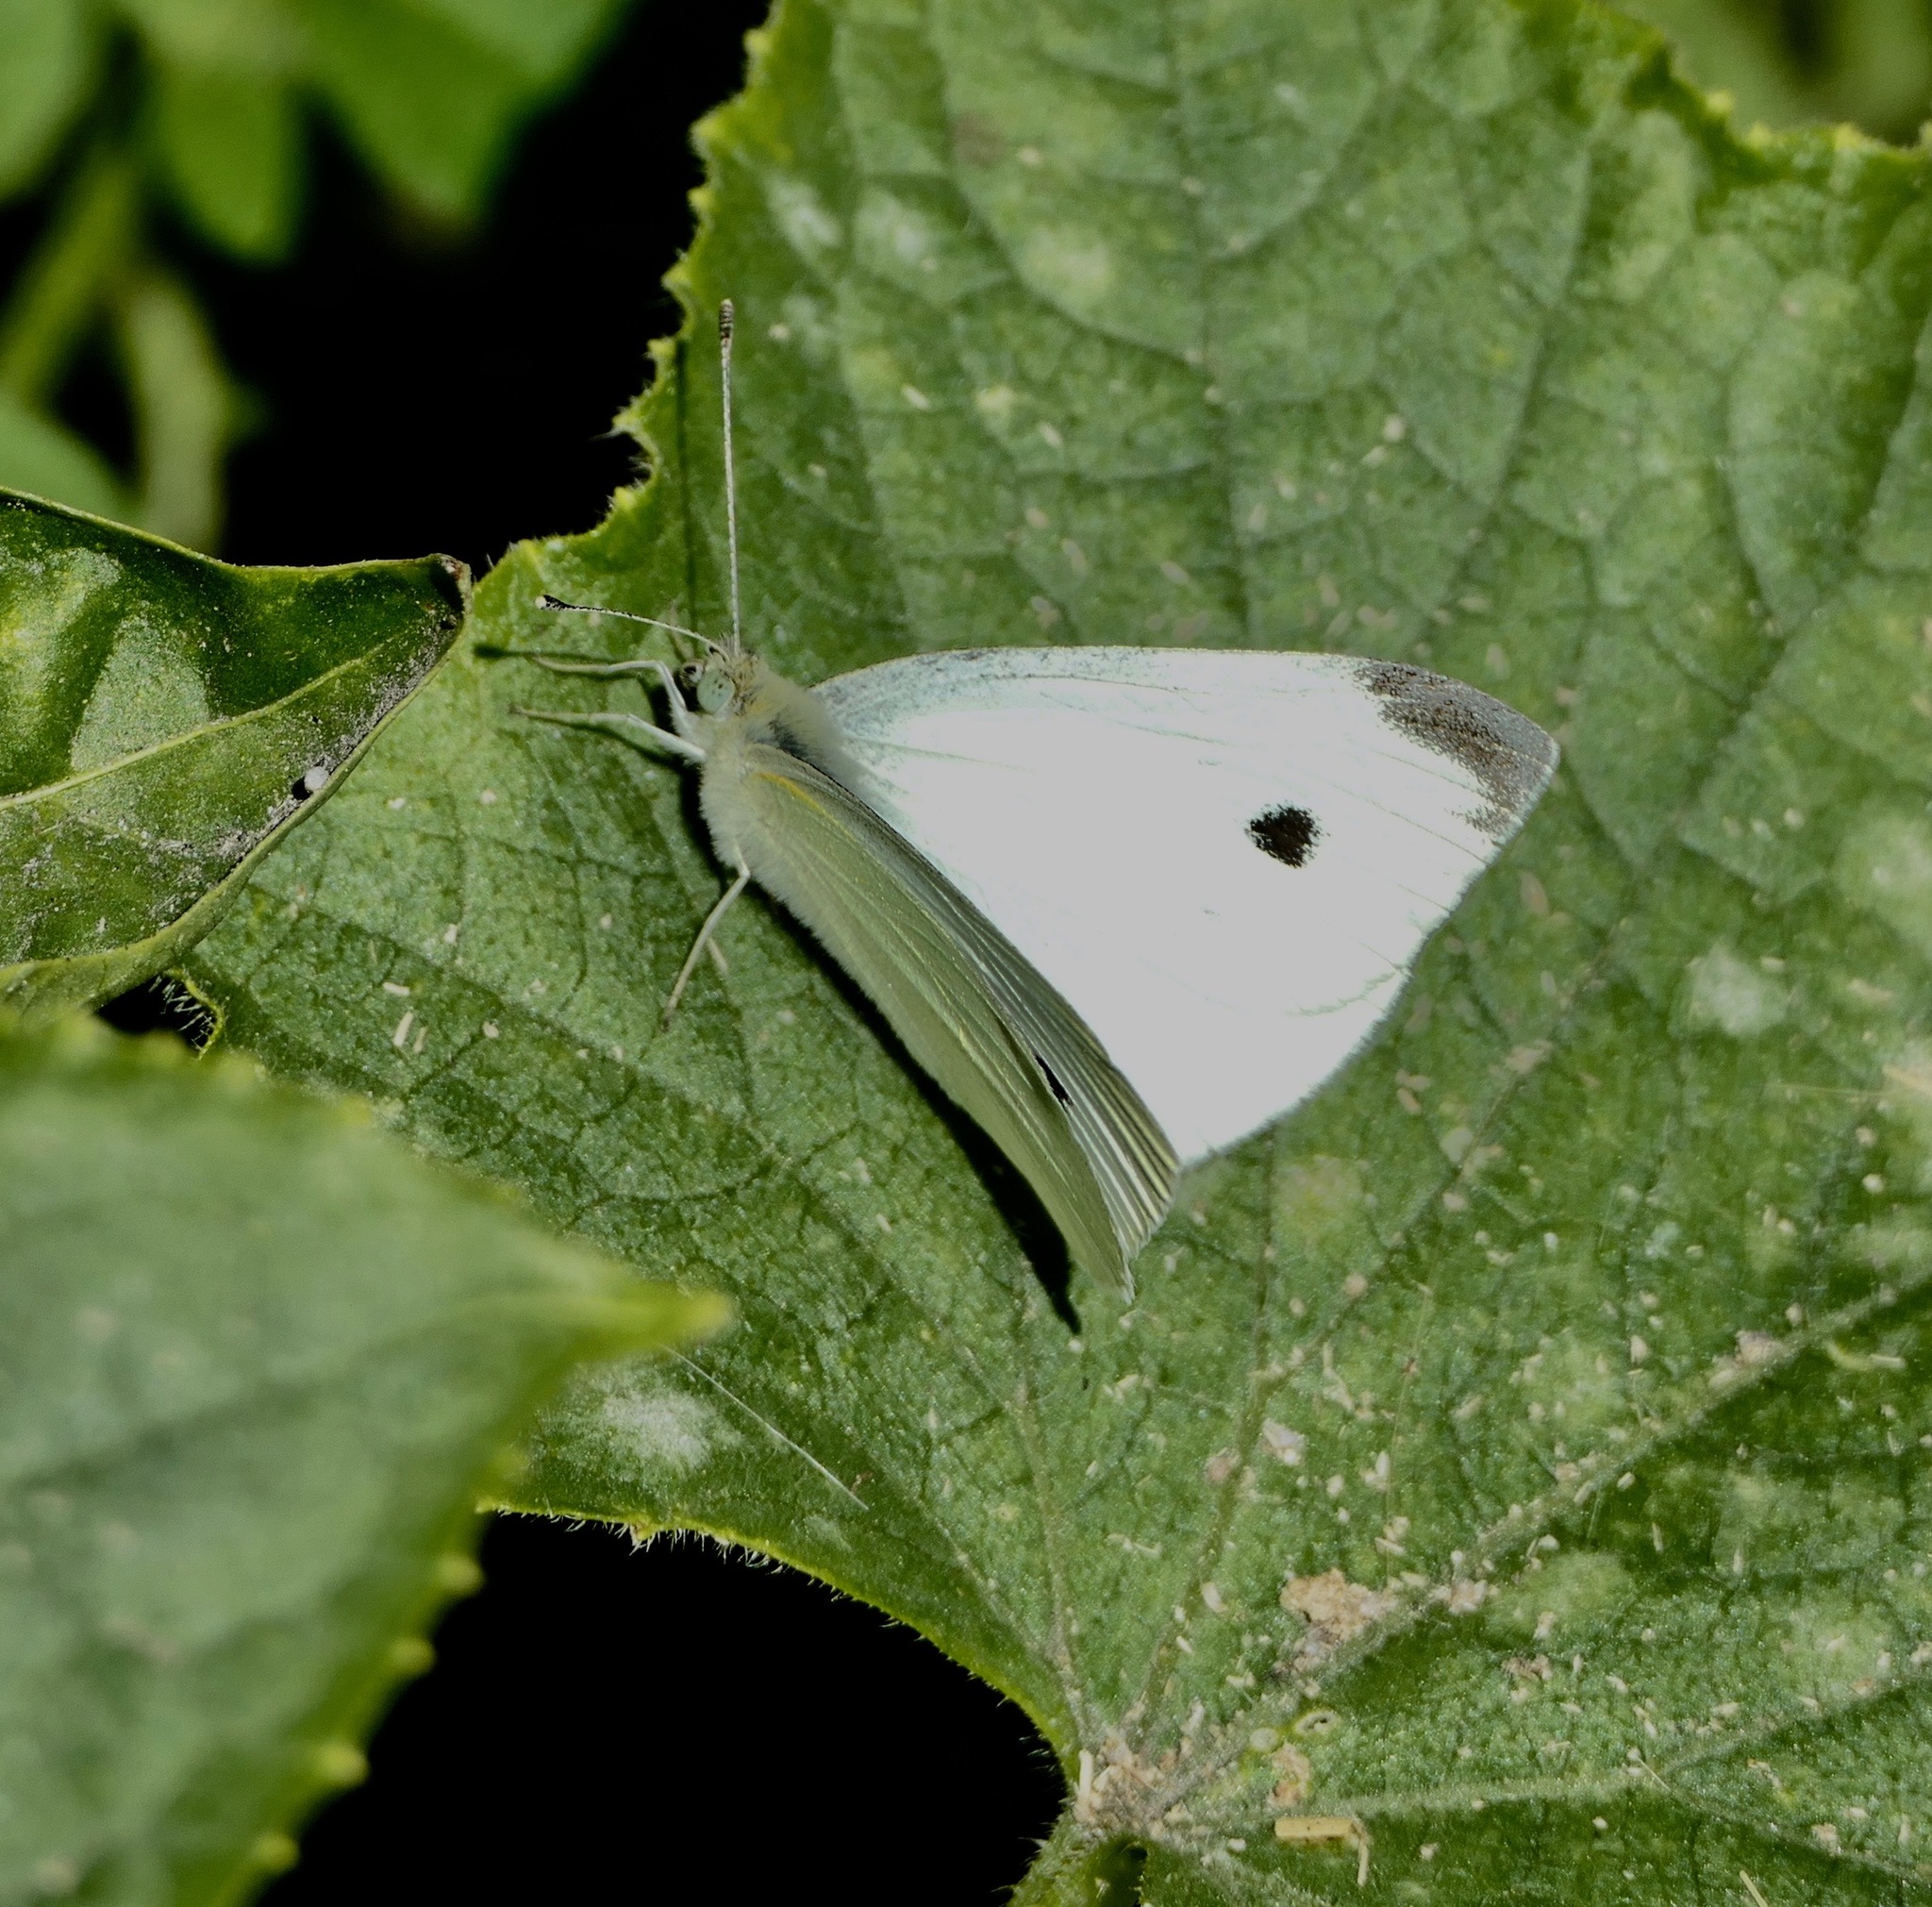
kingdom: Animalia
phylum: Arthropoda
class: Insecta
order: Lepidoptera
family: Pieridae
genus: Pieris
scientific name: Pieris rapae
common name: Small white
